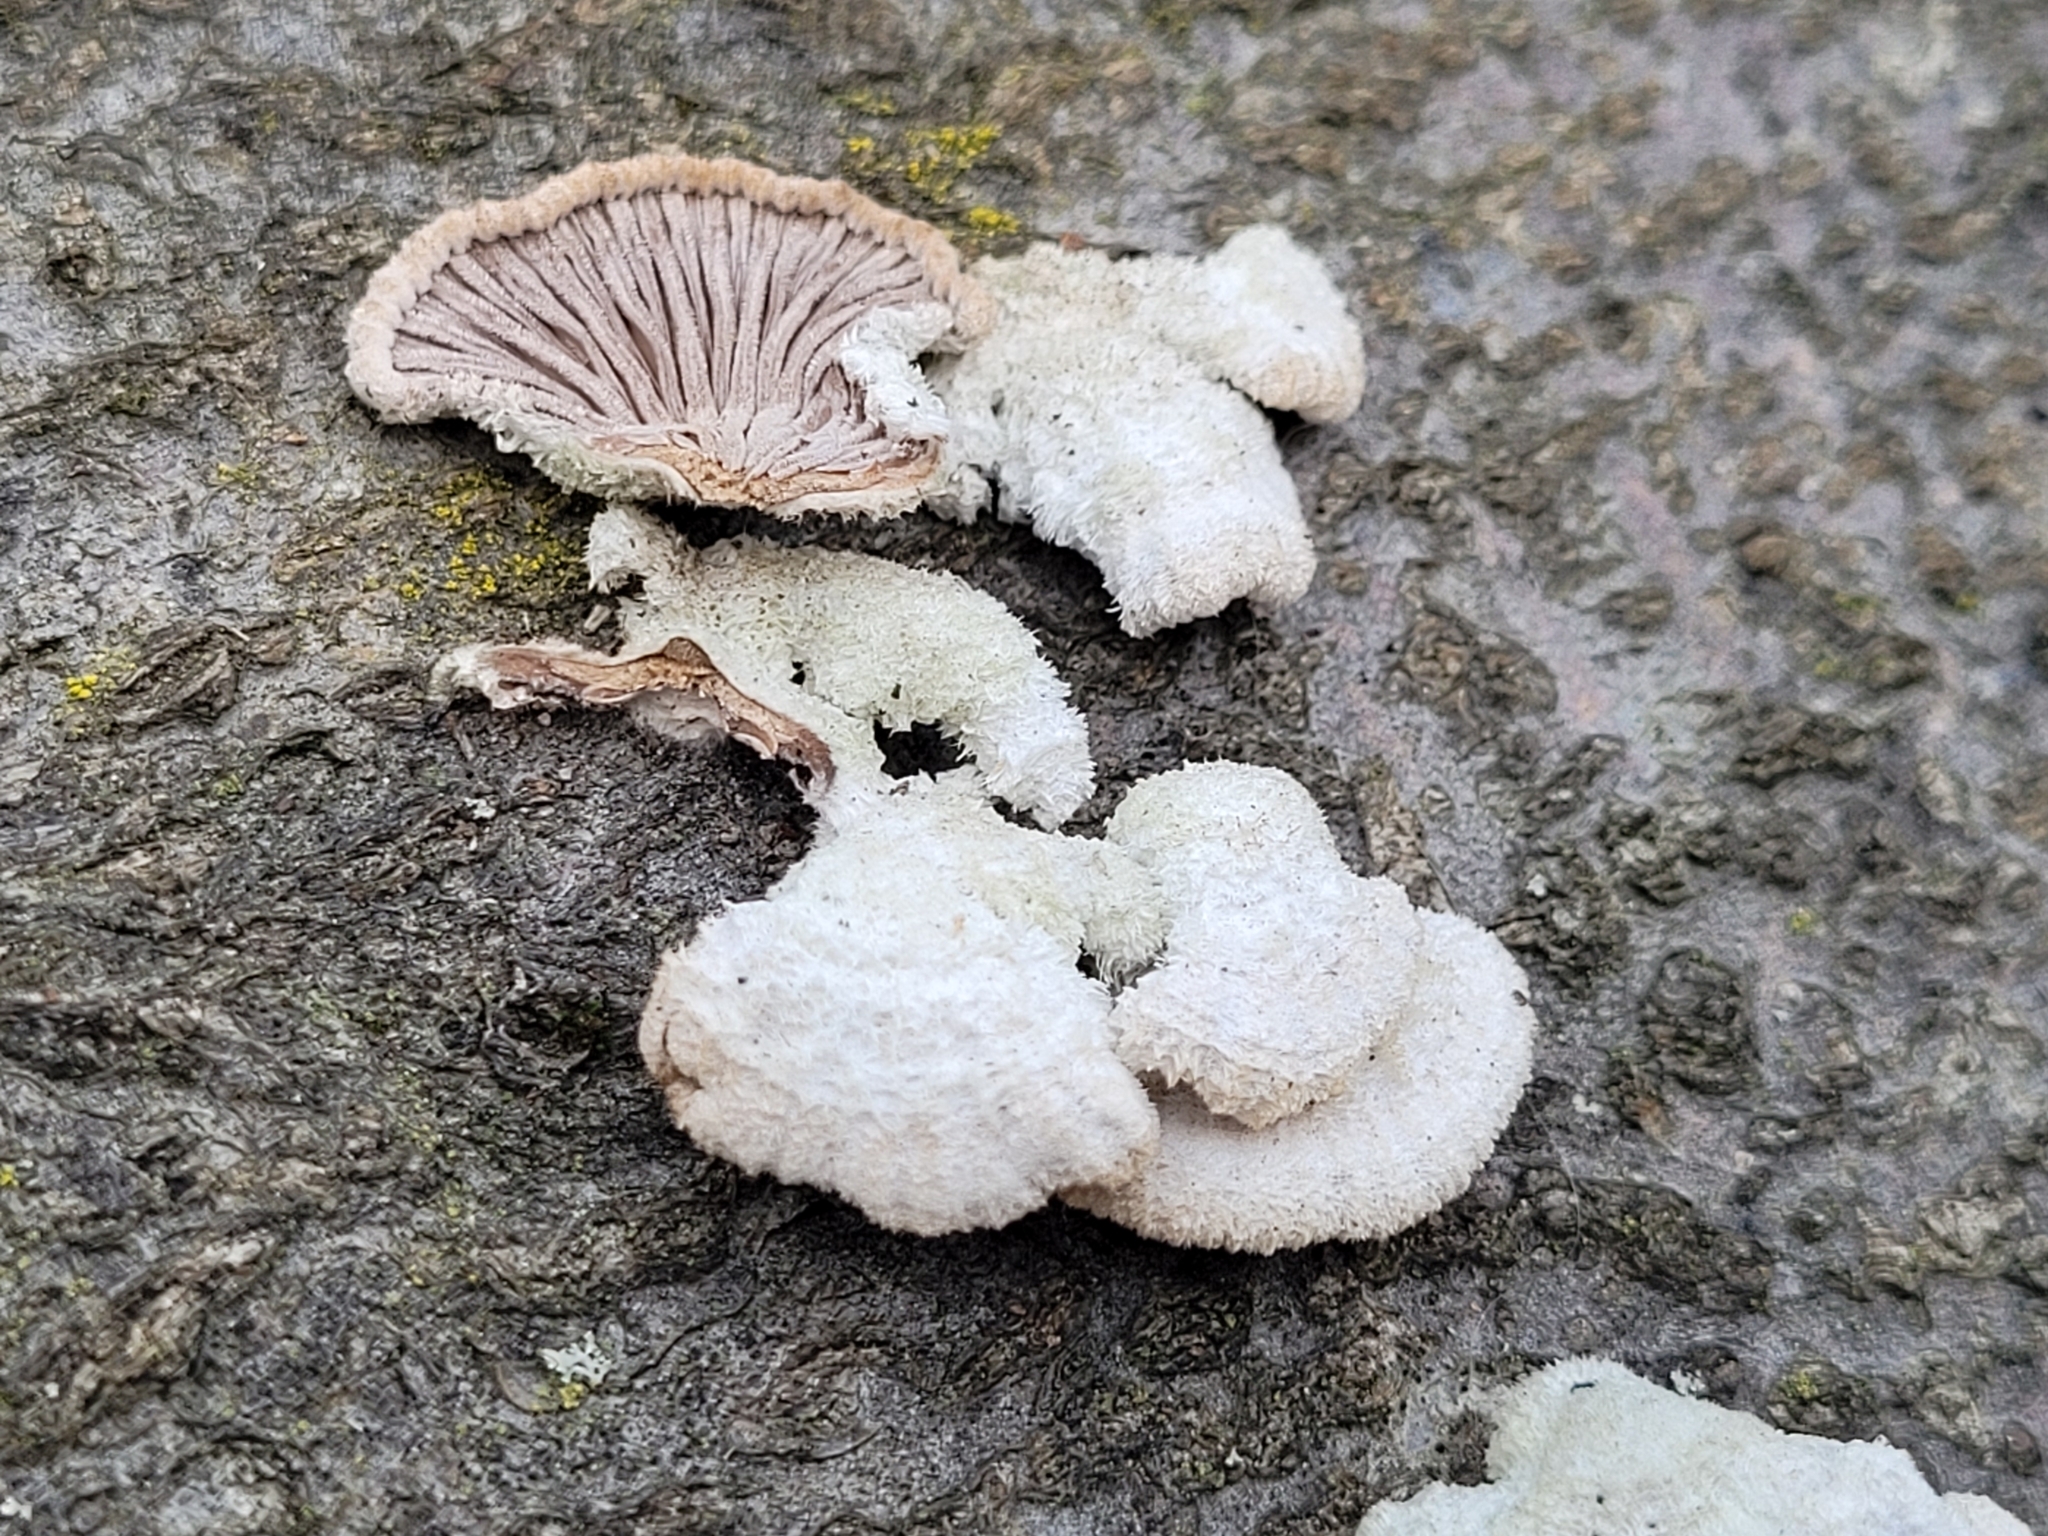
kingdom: Fungi
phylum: Basidiomycota
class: Agaricomycetes
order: Agaricales
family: Schizophyllaceae
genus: Schizophyllum
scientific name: Schizophyllum commune
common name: Common porecrust
